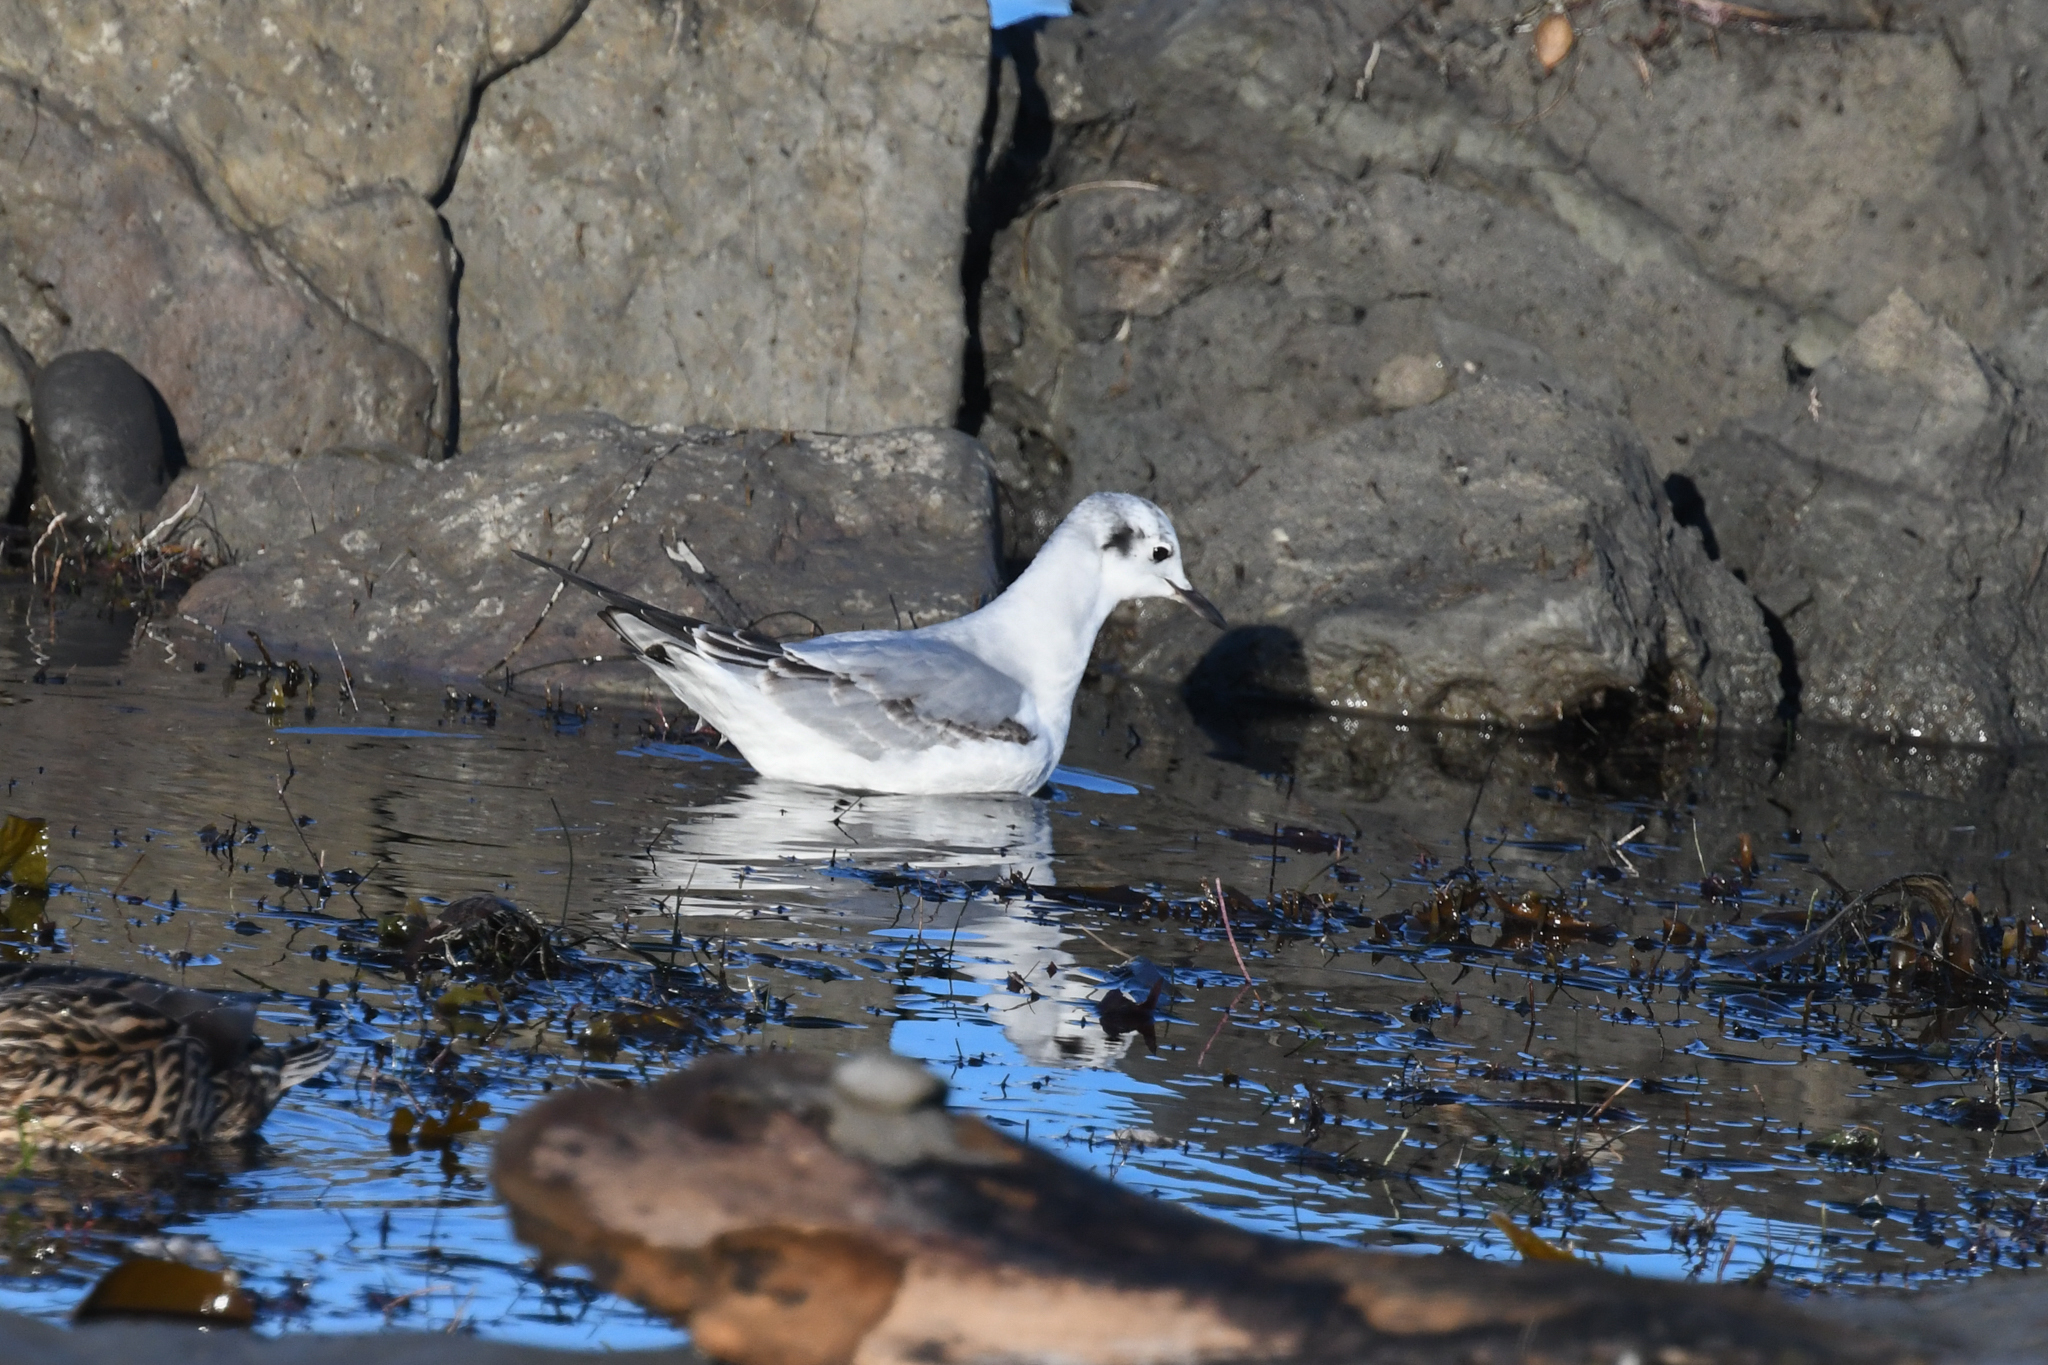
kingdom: Animalia
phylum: Chordata
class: Aves
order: Charadriiformes
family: Laridae
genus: Chroicocephalus
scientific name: Chroicocephalus philadelphia
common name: Bonaparte's gull
